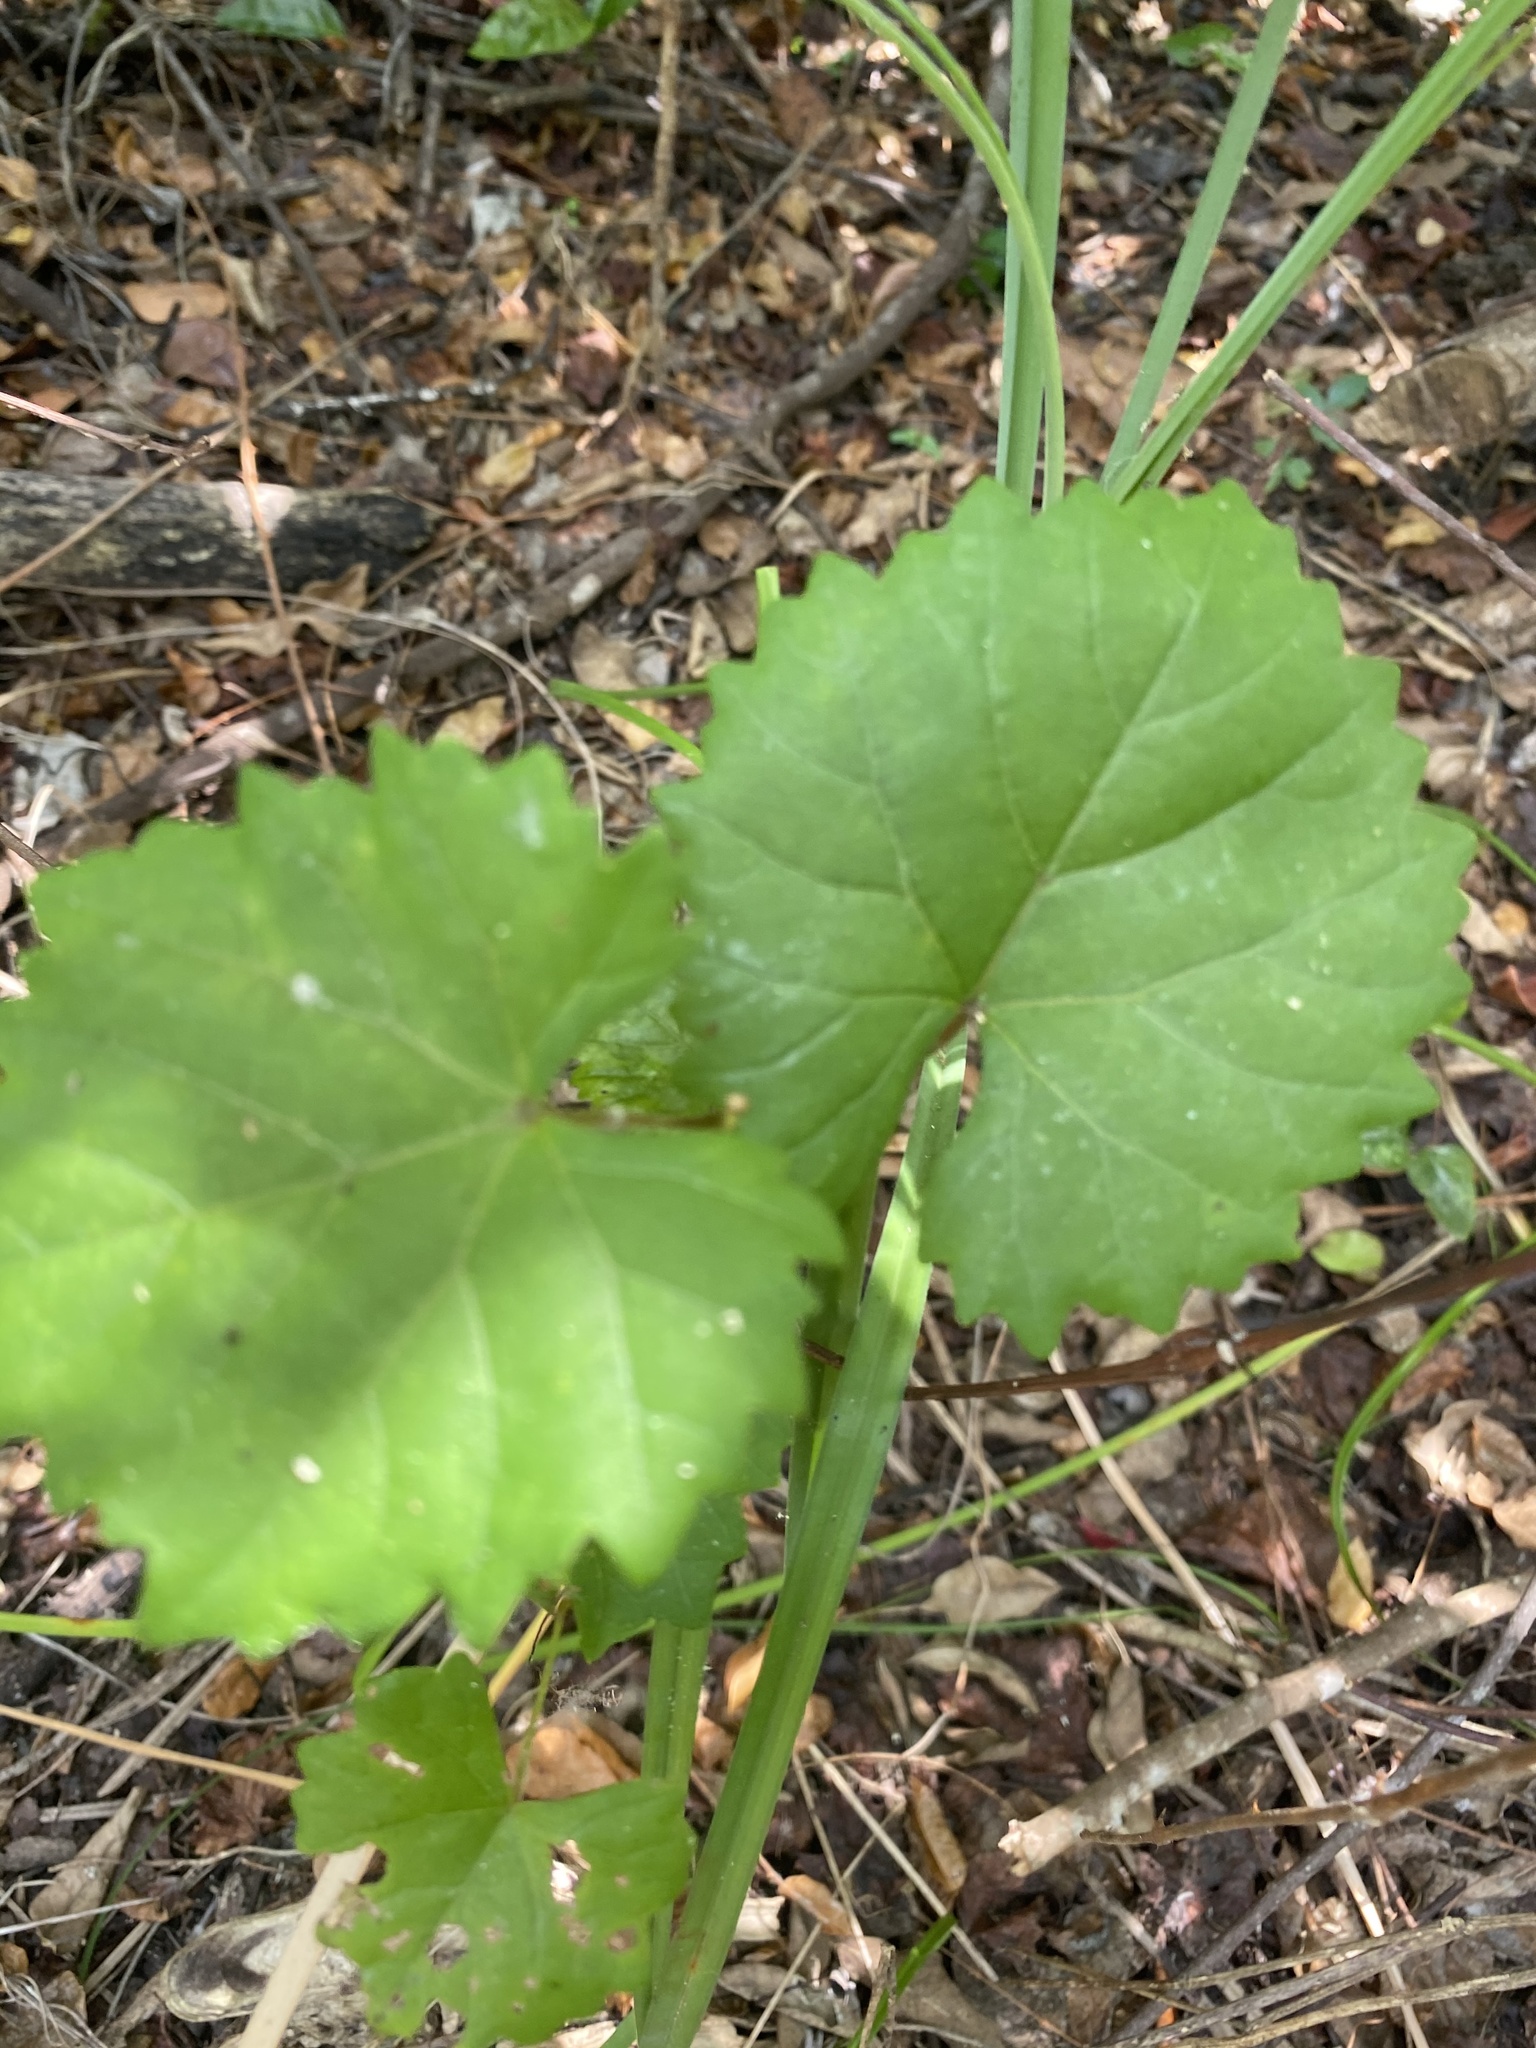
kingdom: Plantae
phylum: Tracheophyta
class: Magnoliopsida
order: Vitales
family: Vitaceae
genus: Vitis
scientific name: Vitis rotundifolia
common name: Muscadine grape
